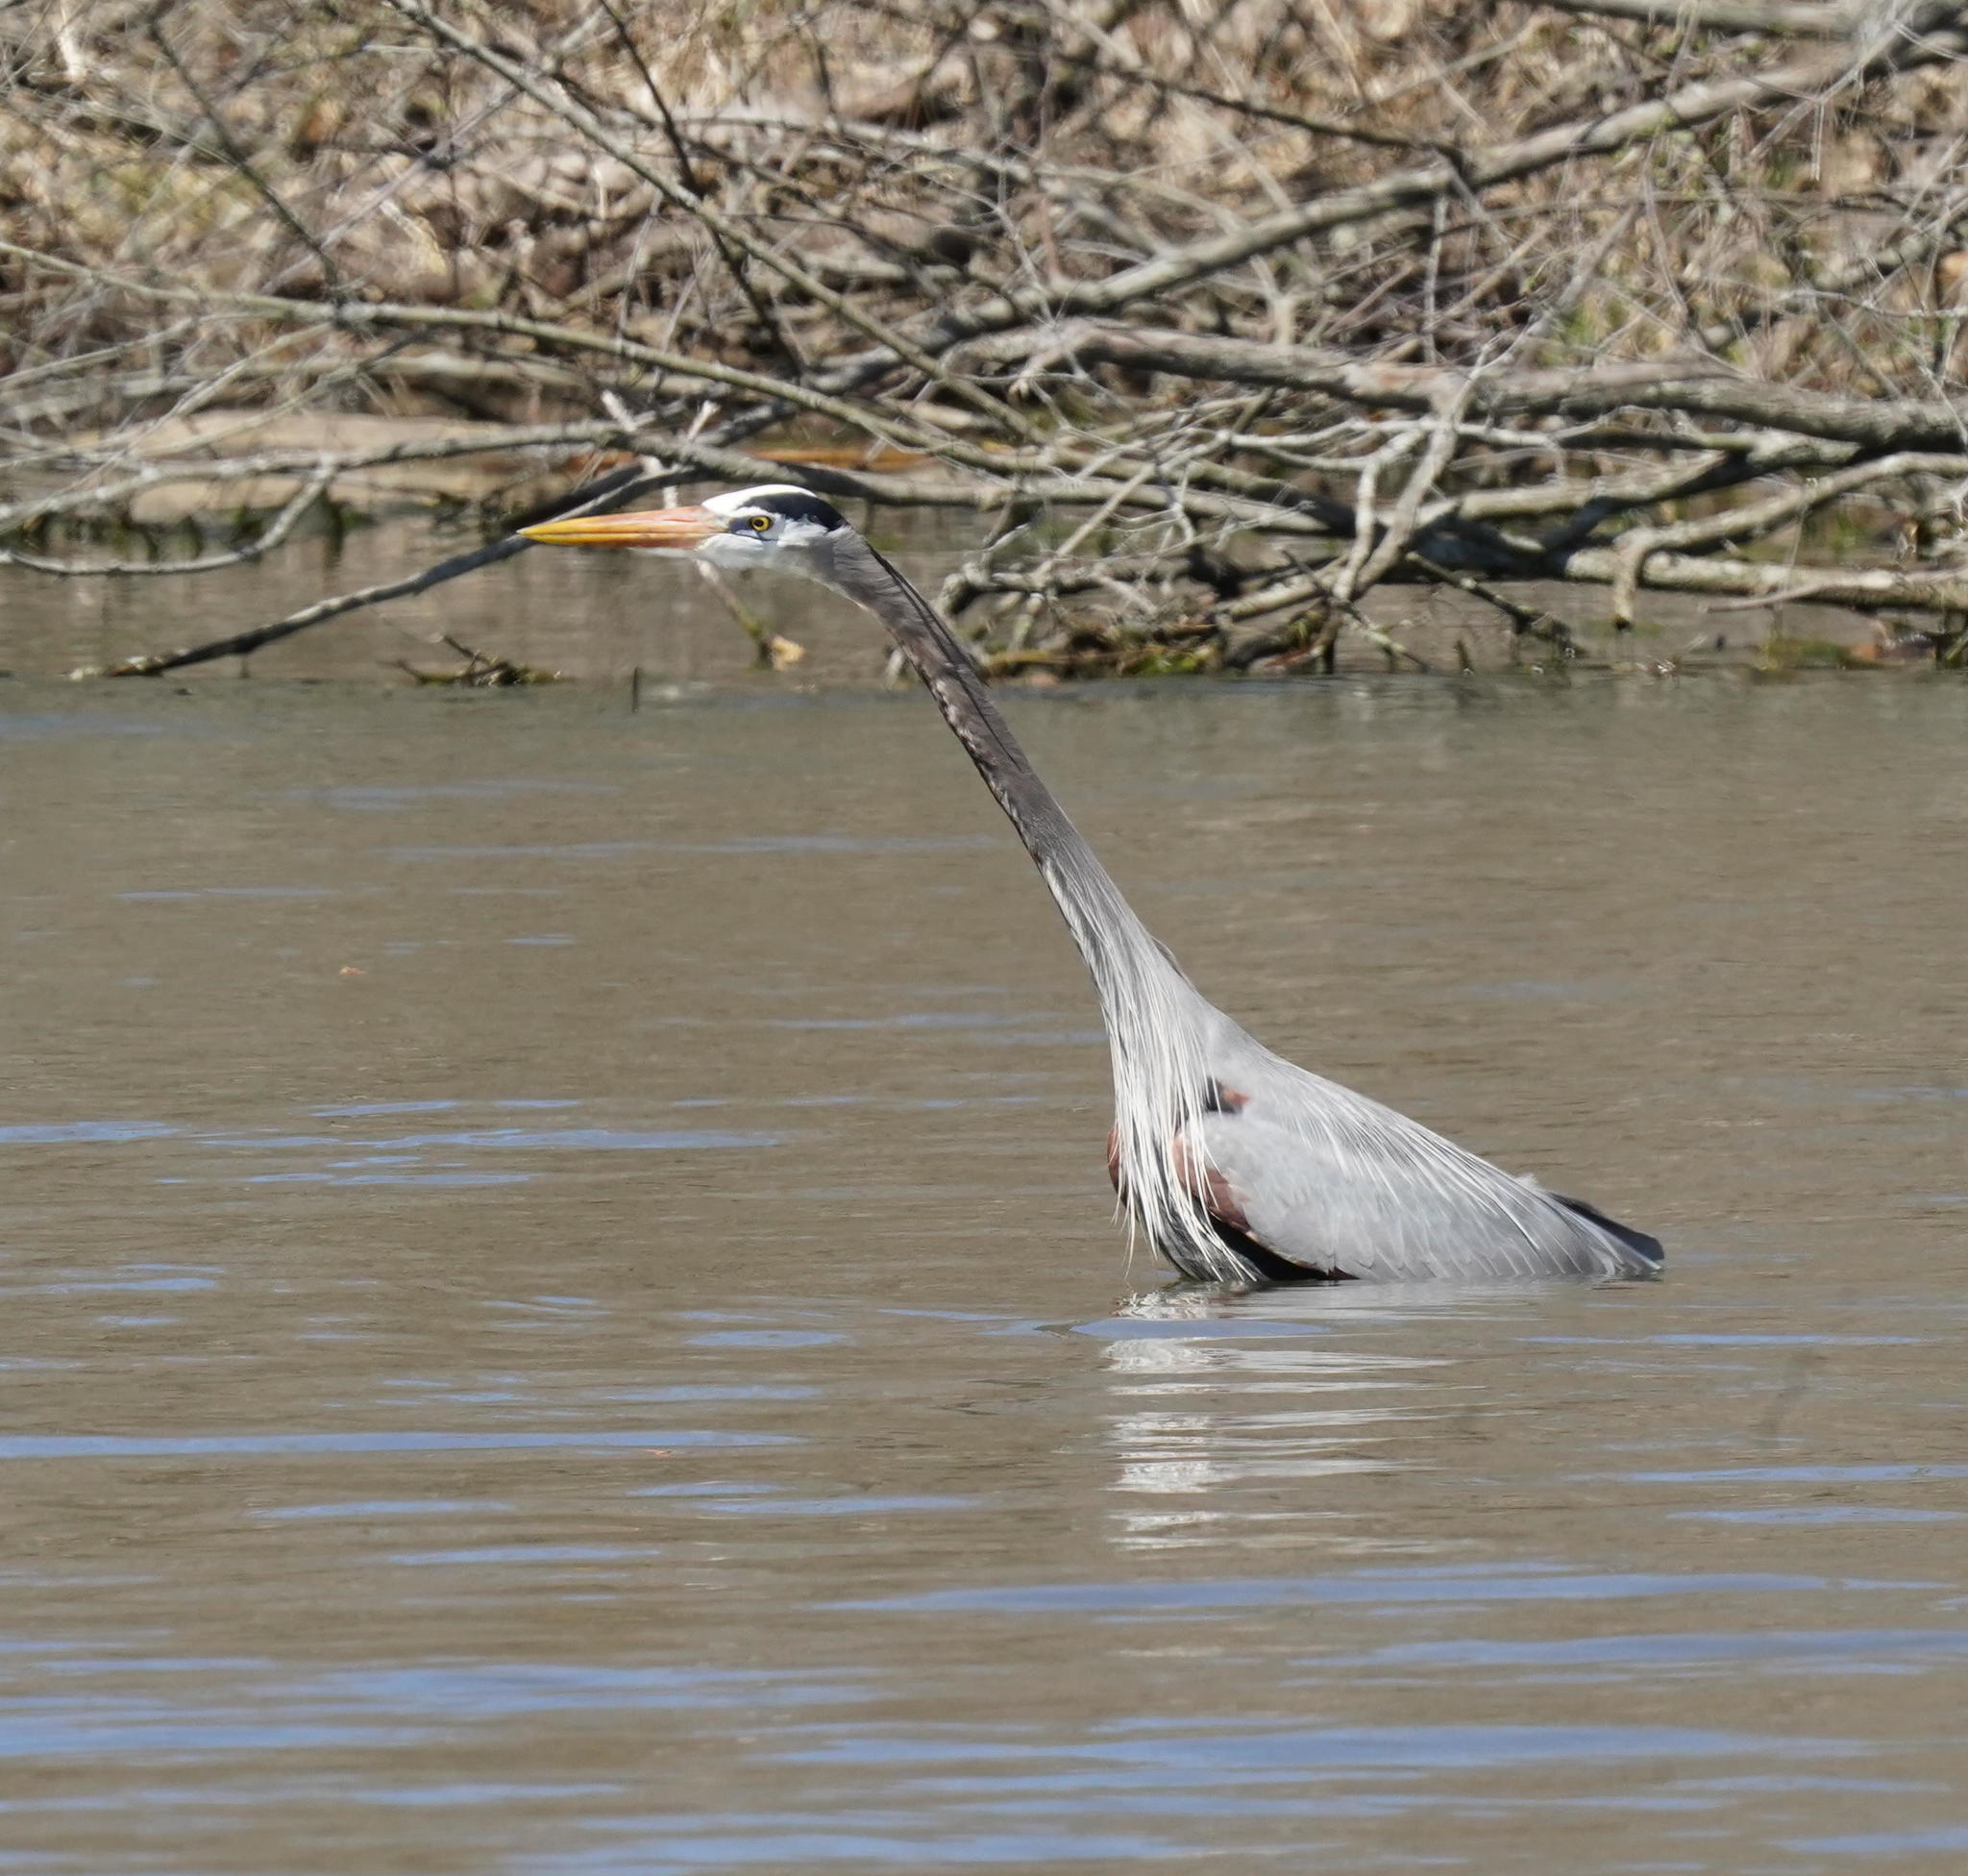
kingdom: Animalia
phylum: Chordata
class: Aves
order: Pelecaniformes
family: Ardeidae
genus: Ardea
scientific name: Ardea herodias
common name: Great blue heron
